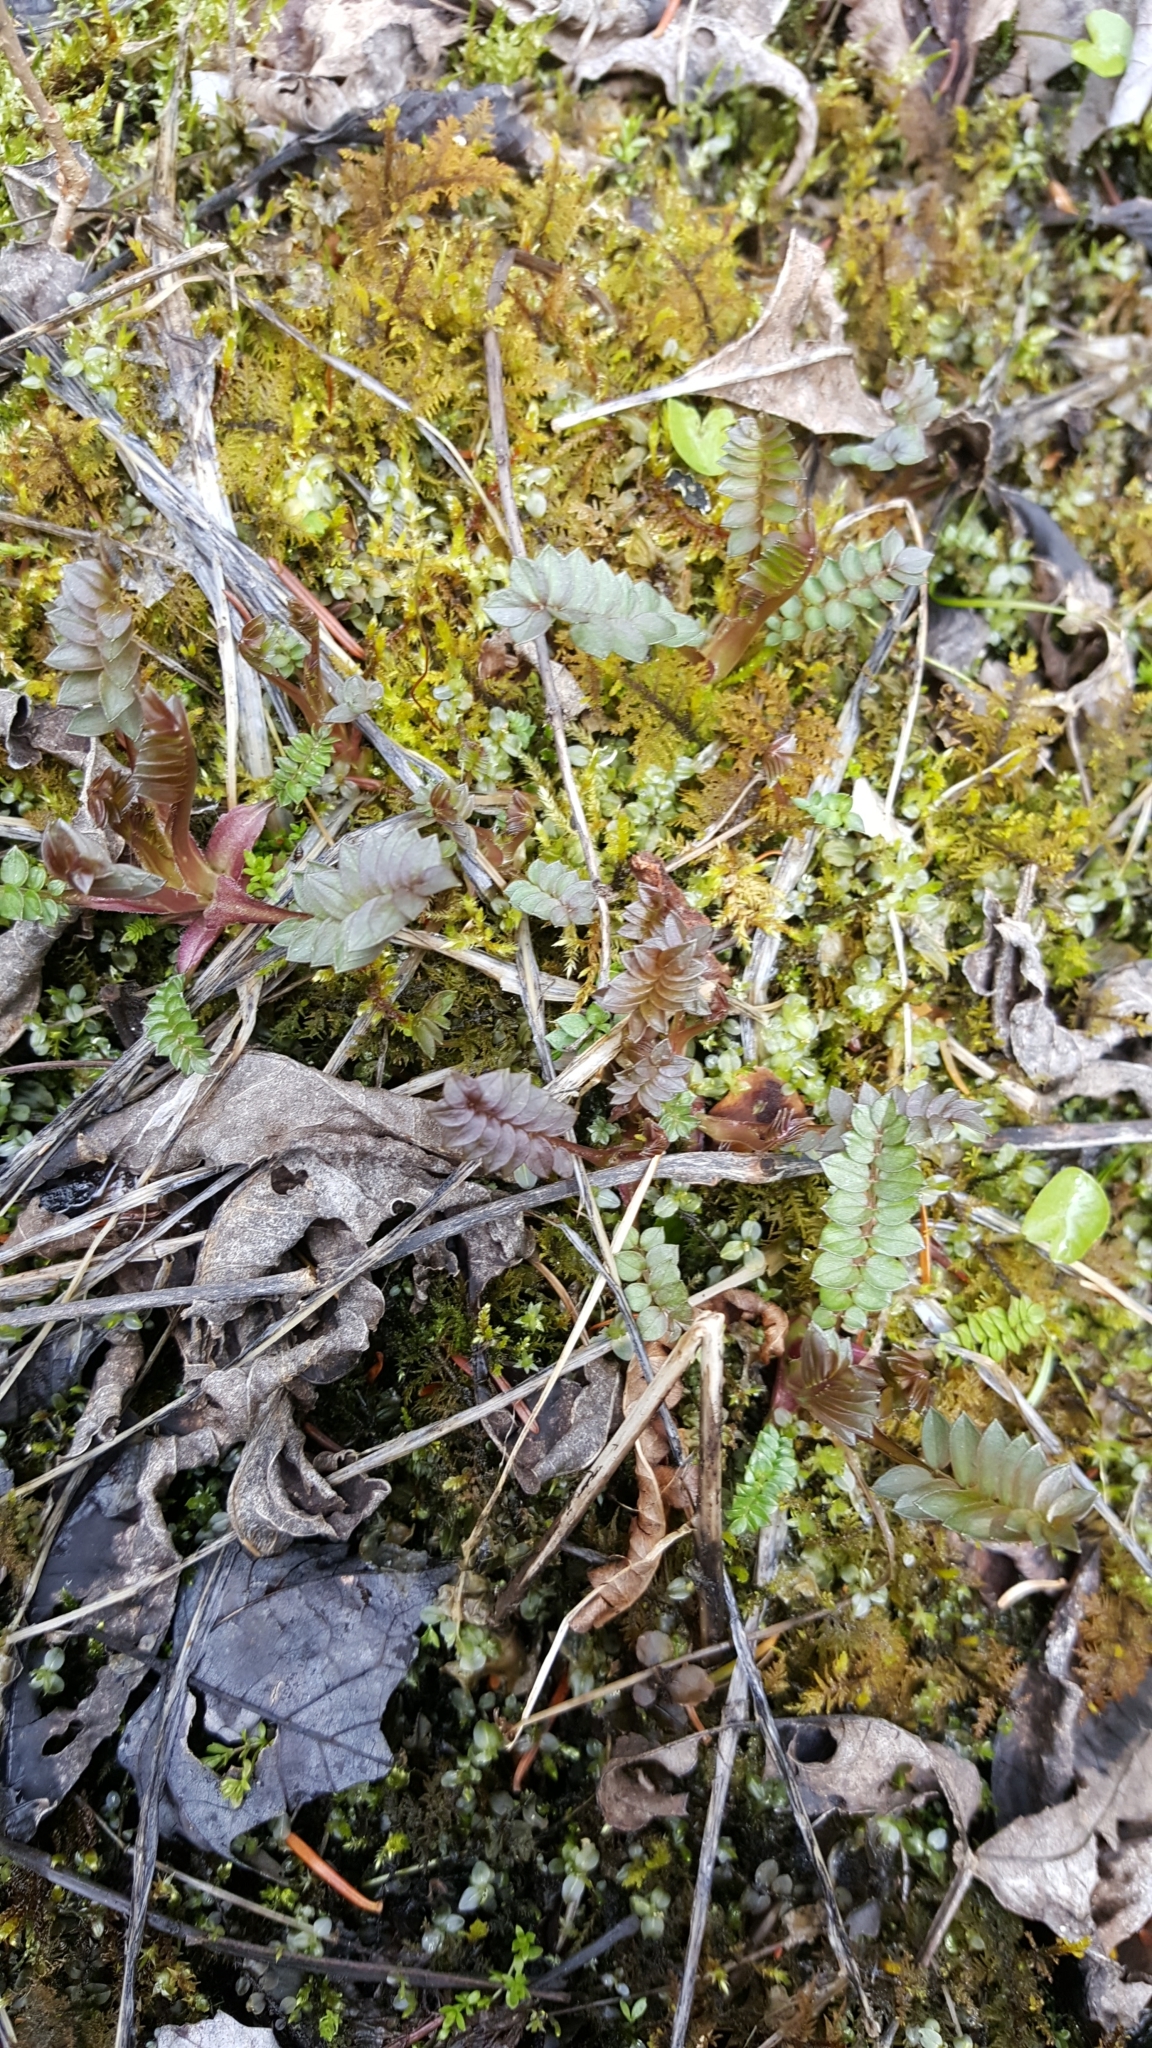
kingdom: Plantae
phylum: Tracheophyta
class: Magnoliopsida
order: Ericales
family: Polemoniaceae
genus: Polemonium
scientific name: Polemonium vanbruntiae
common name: Bog jacob's-ladder
